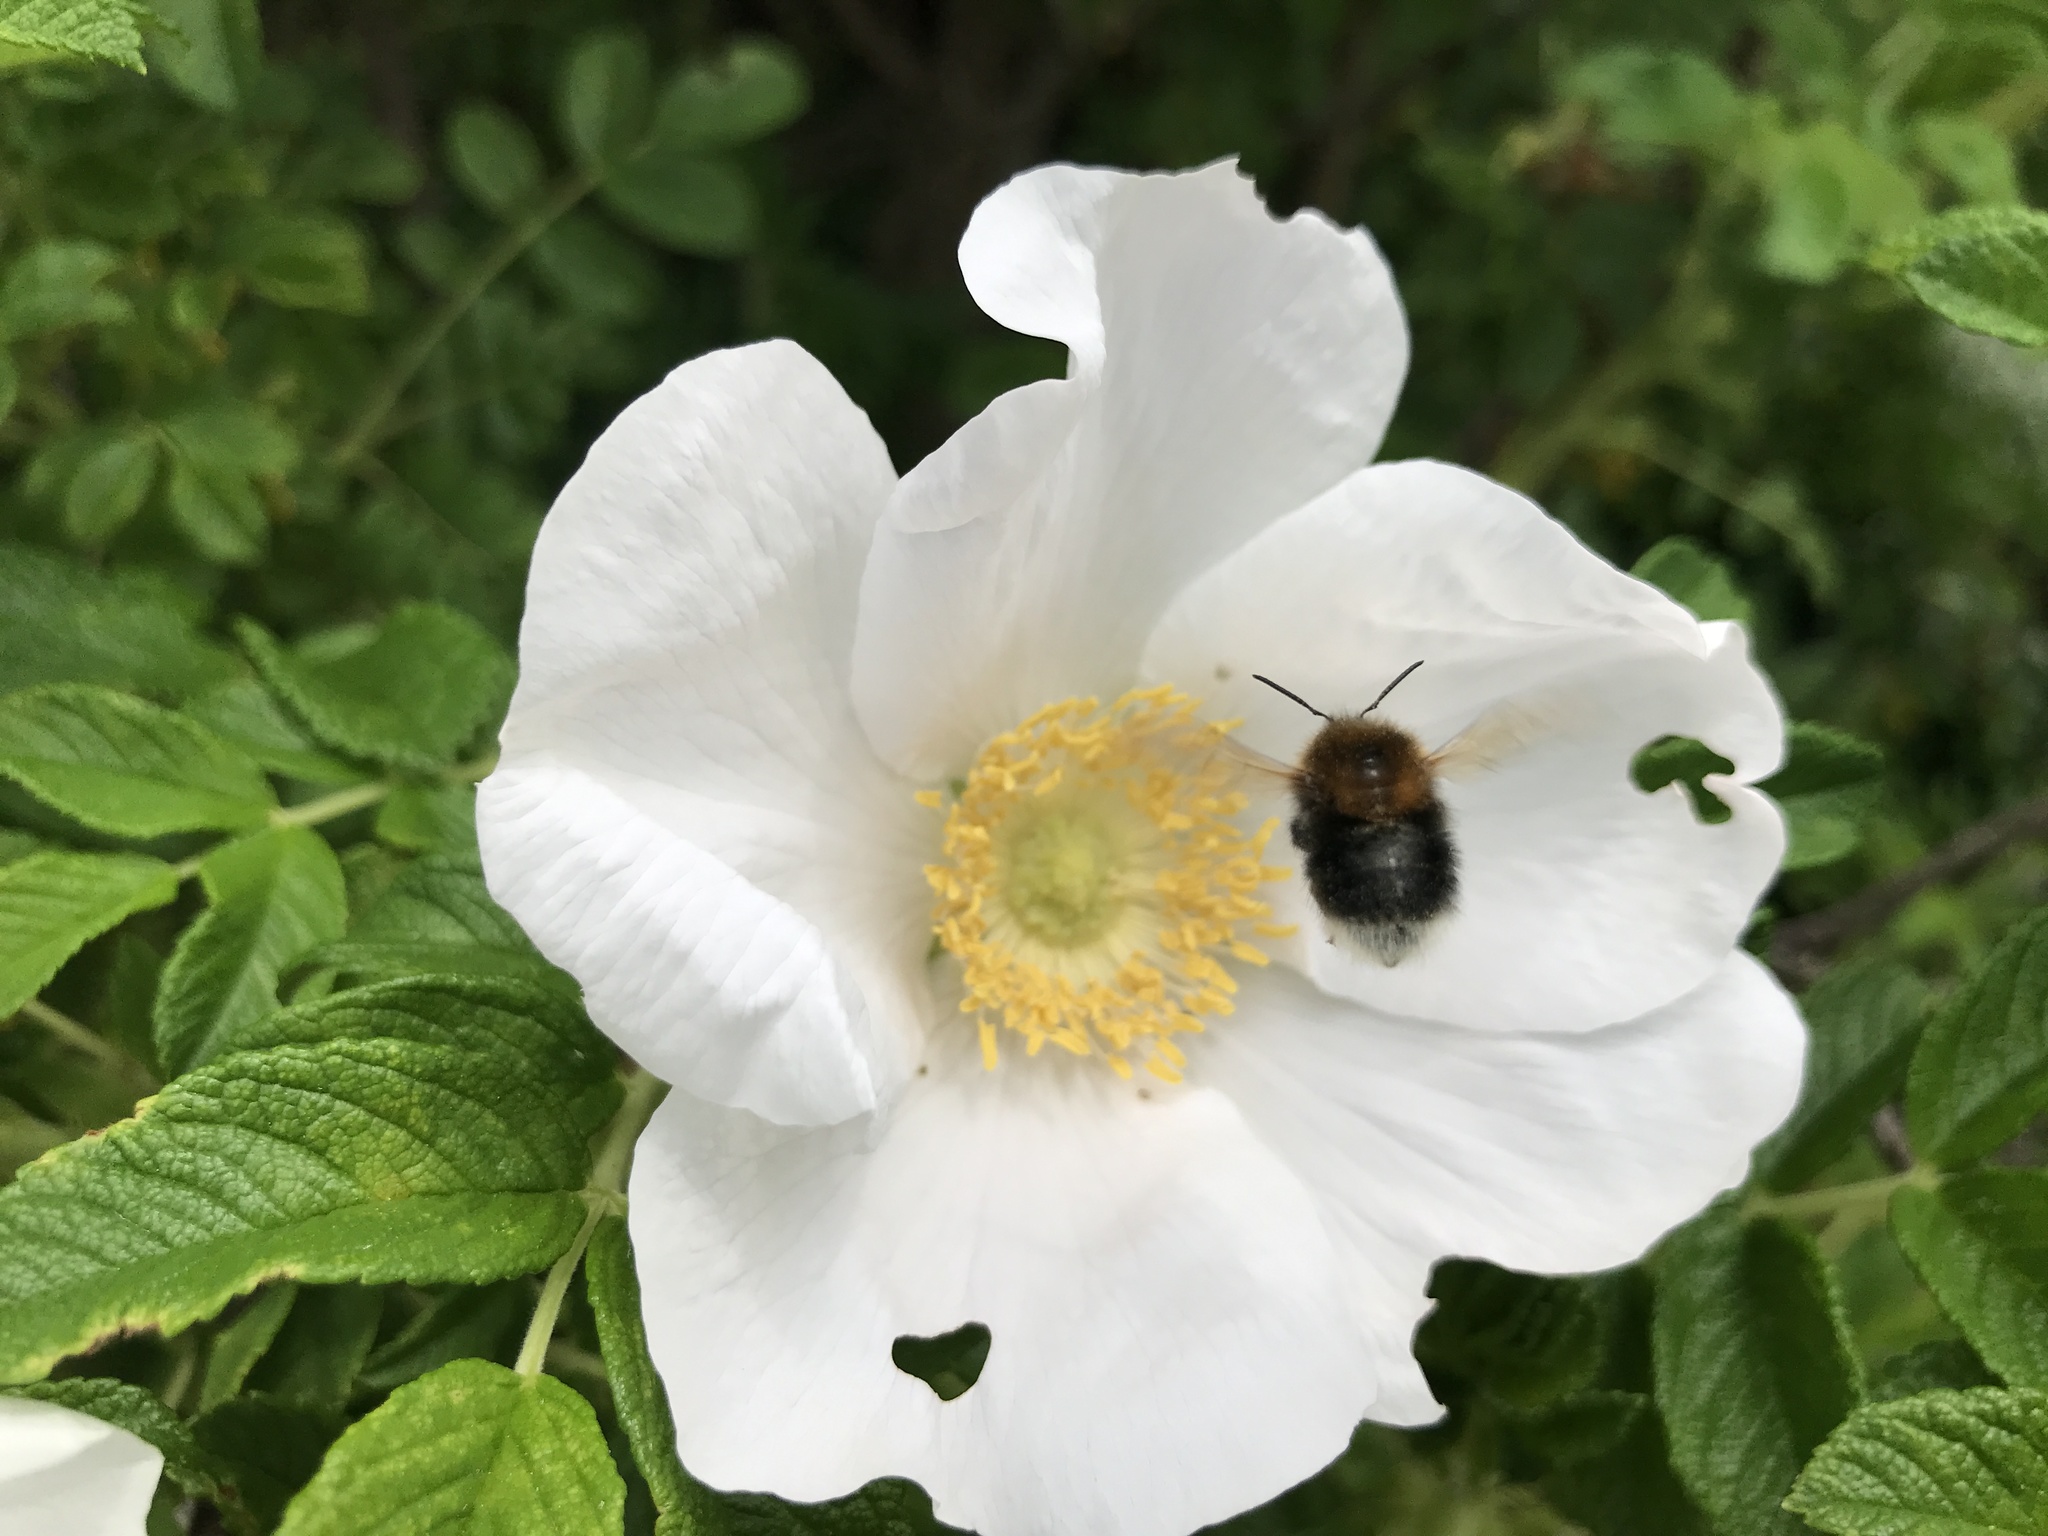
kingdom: Animalia
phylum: Arthropoda
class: Insecta
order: Hymenoptera
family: Apidae
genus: Bombus
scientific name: Bombus hypnorum
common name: New garden bumblebee
